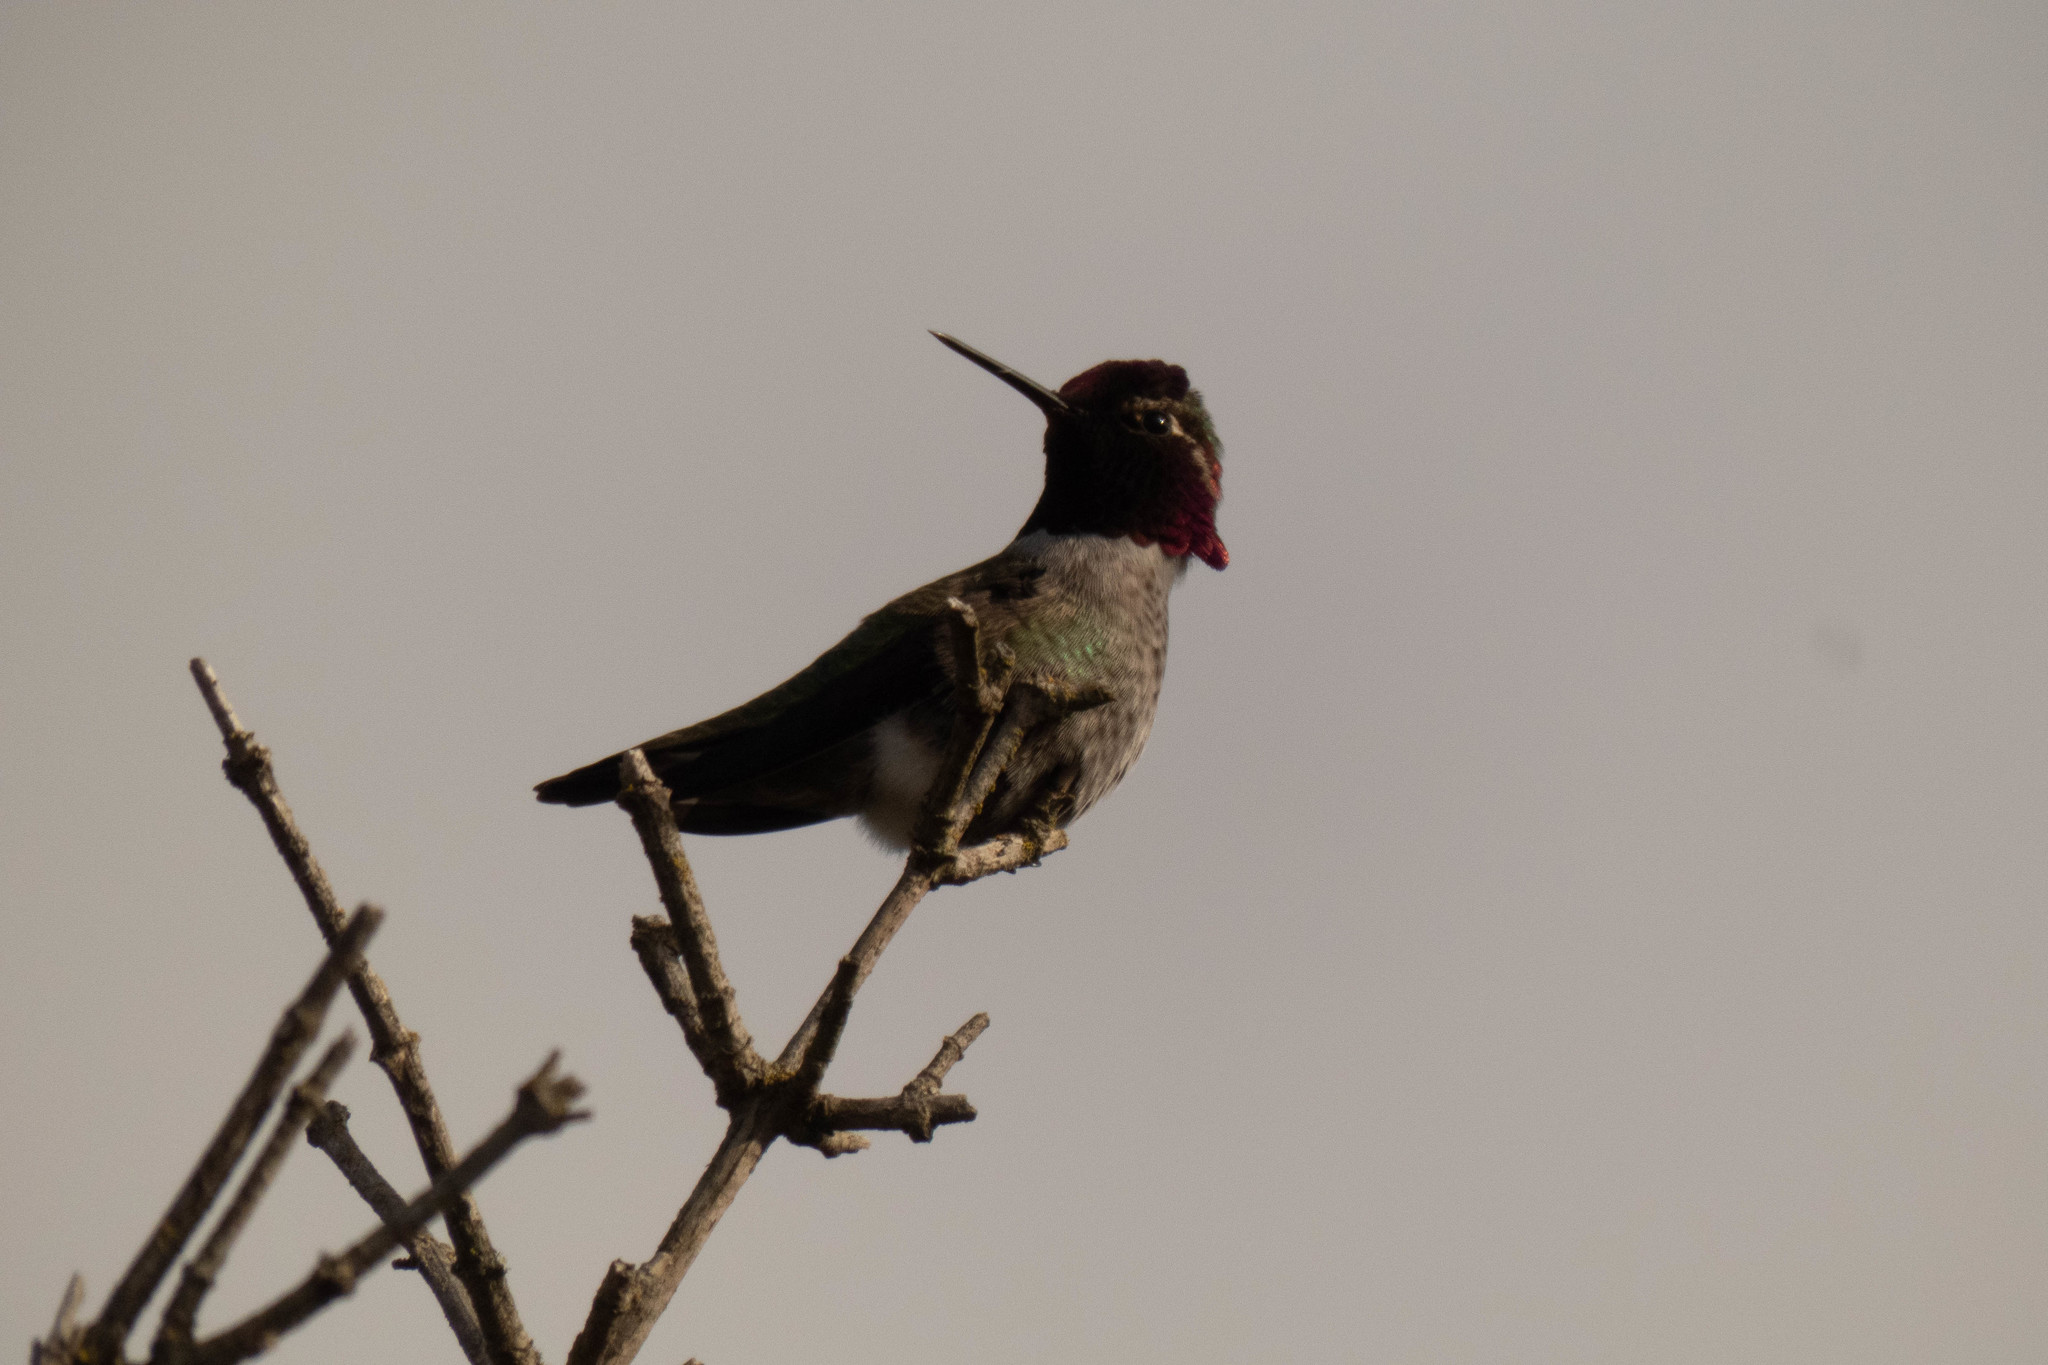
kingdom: Animalia
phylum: Chordata
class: Aves
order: Apodiformes
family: Trochilidae
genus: Calypte
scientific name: Calypte anna
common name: Anna's hummingbird
